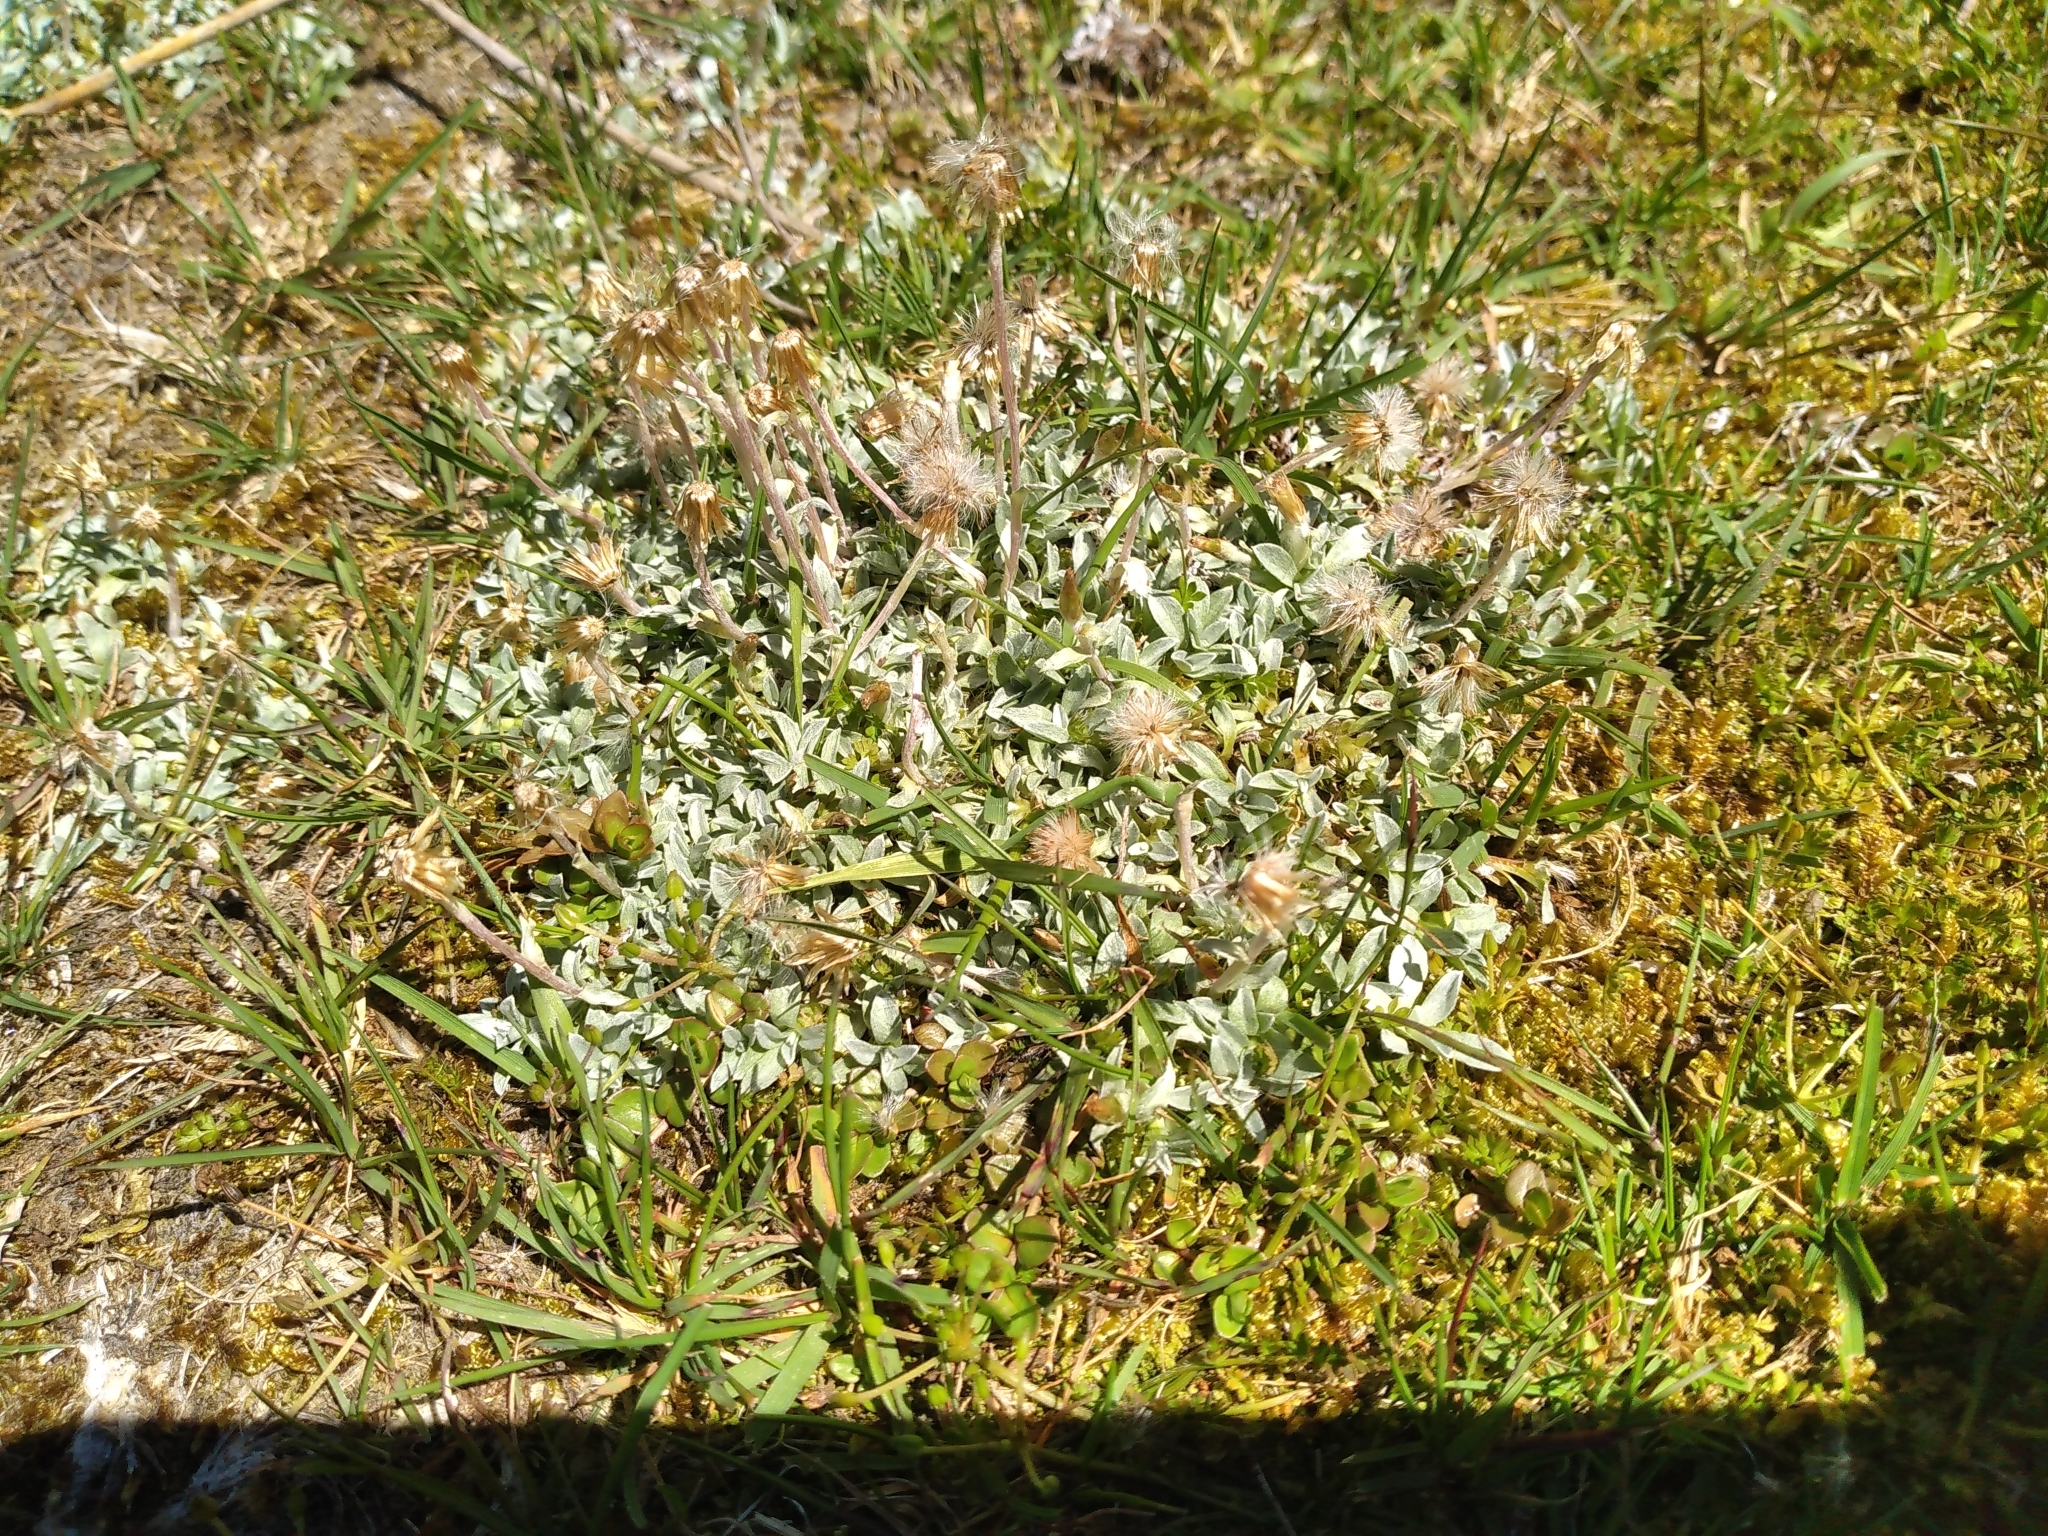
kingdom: Plantae
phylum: Tracheophyta
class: Magnoliopsida
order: Asterales
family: Asteraceae
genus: Argyrotegium
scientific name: Argyrotegium mackayi
